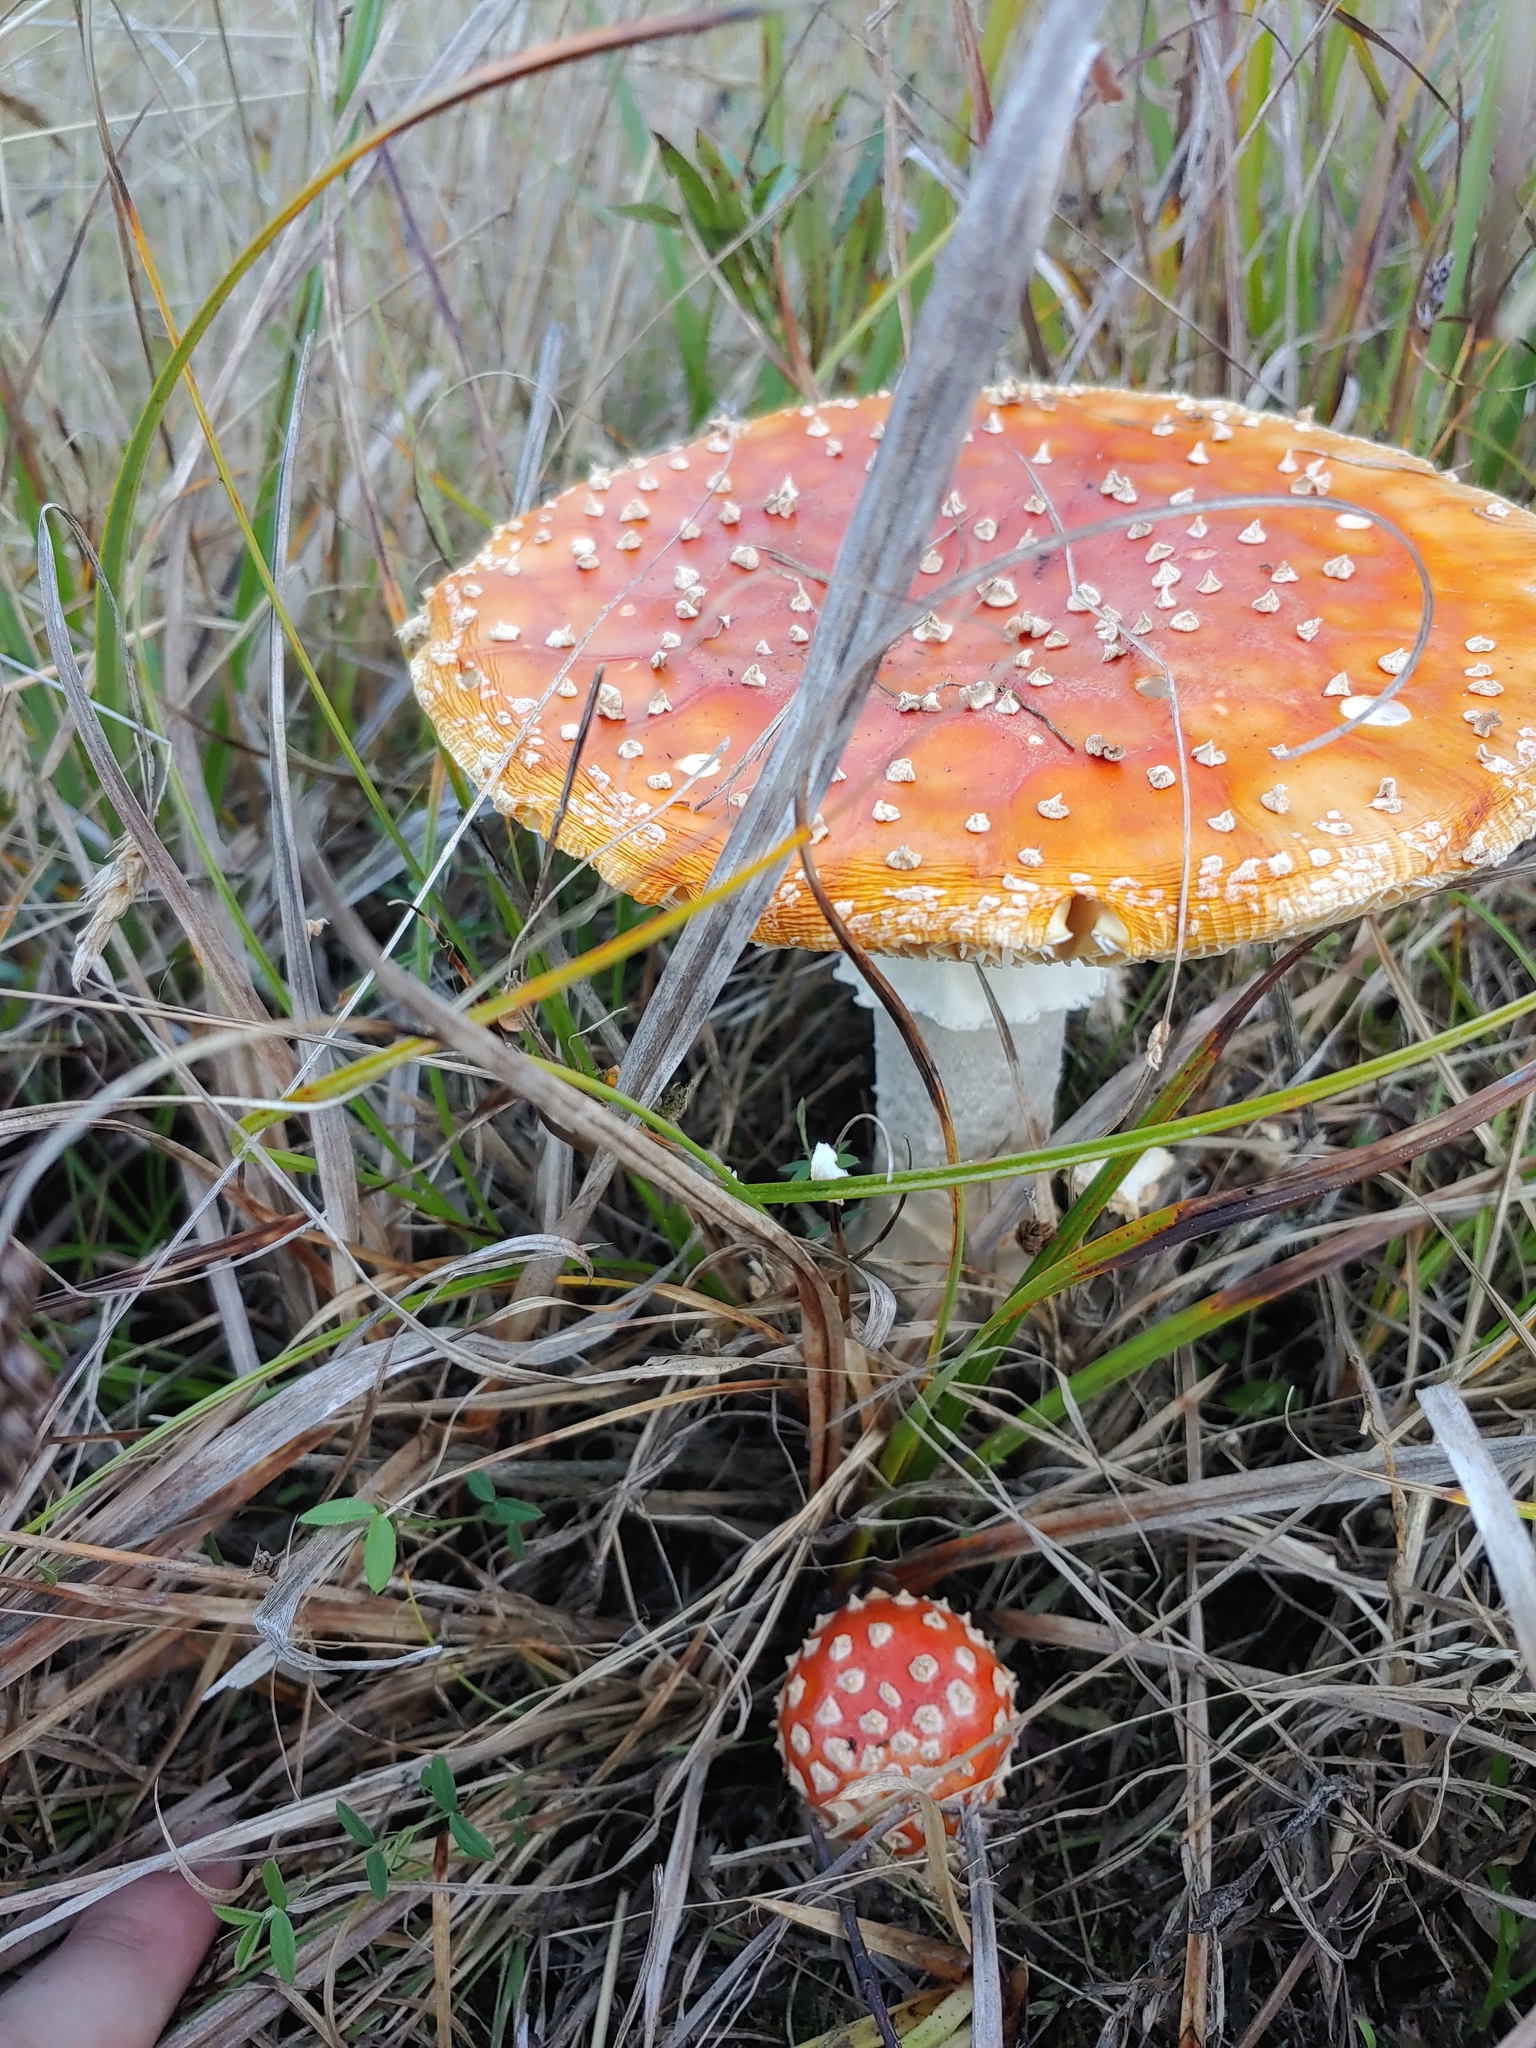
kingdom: Fungi
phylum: Basidiomycota
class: Agaricomycetes
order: Agaricales
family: Amanitaceae
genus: Amanita
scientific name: Amanita muscaria
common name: Fly agaric
